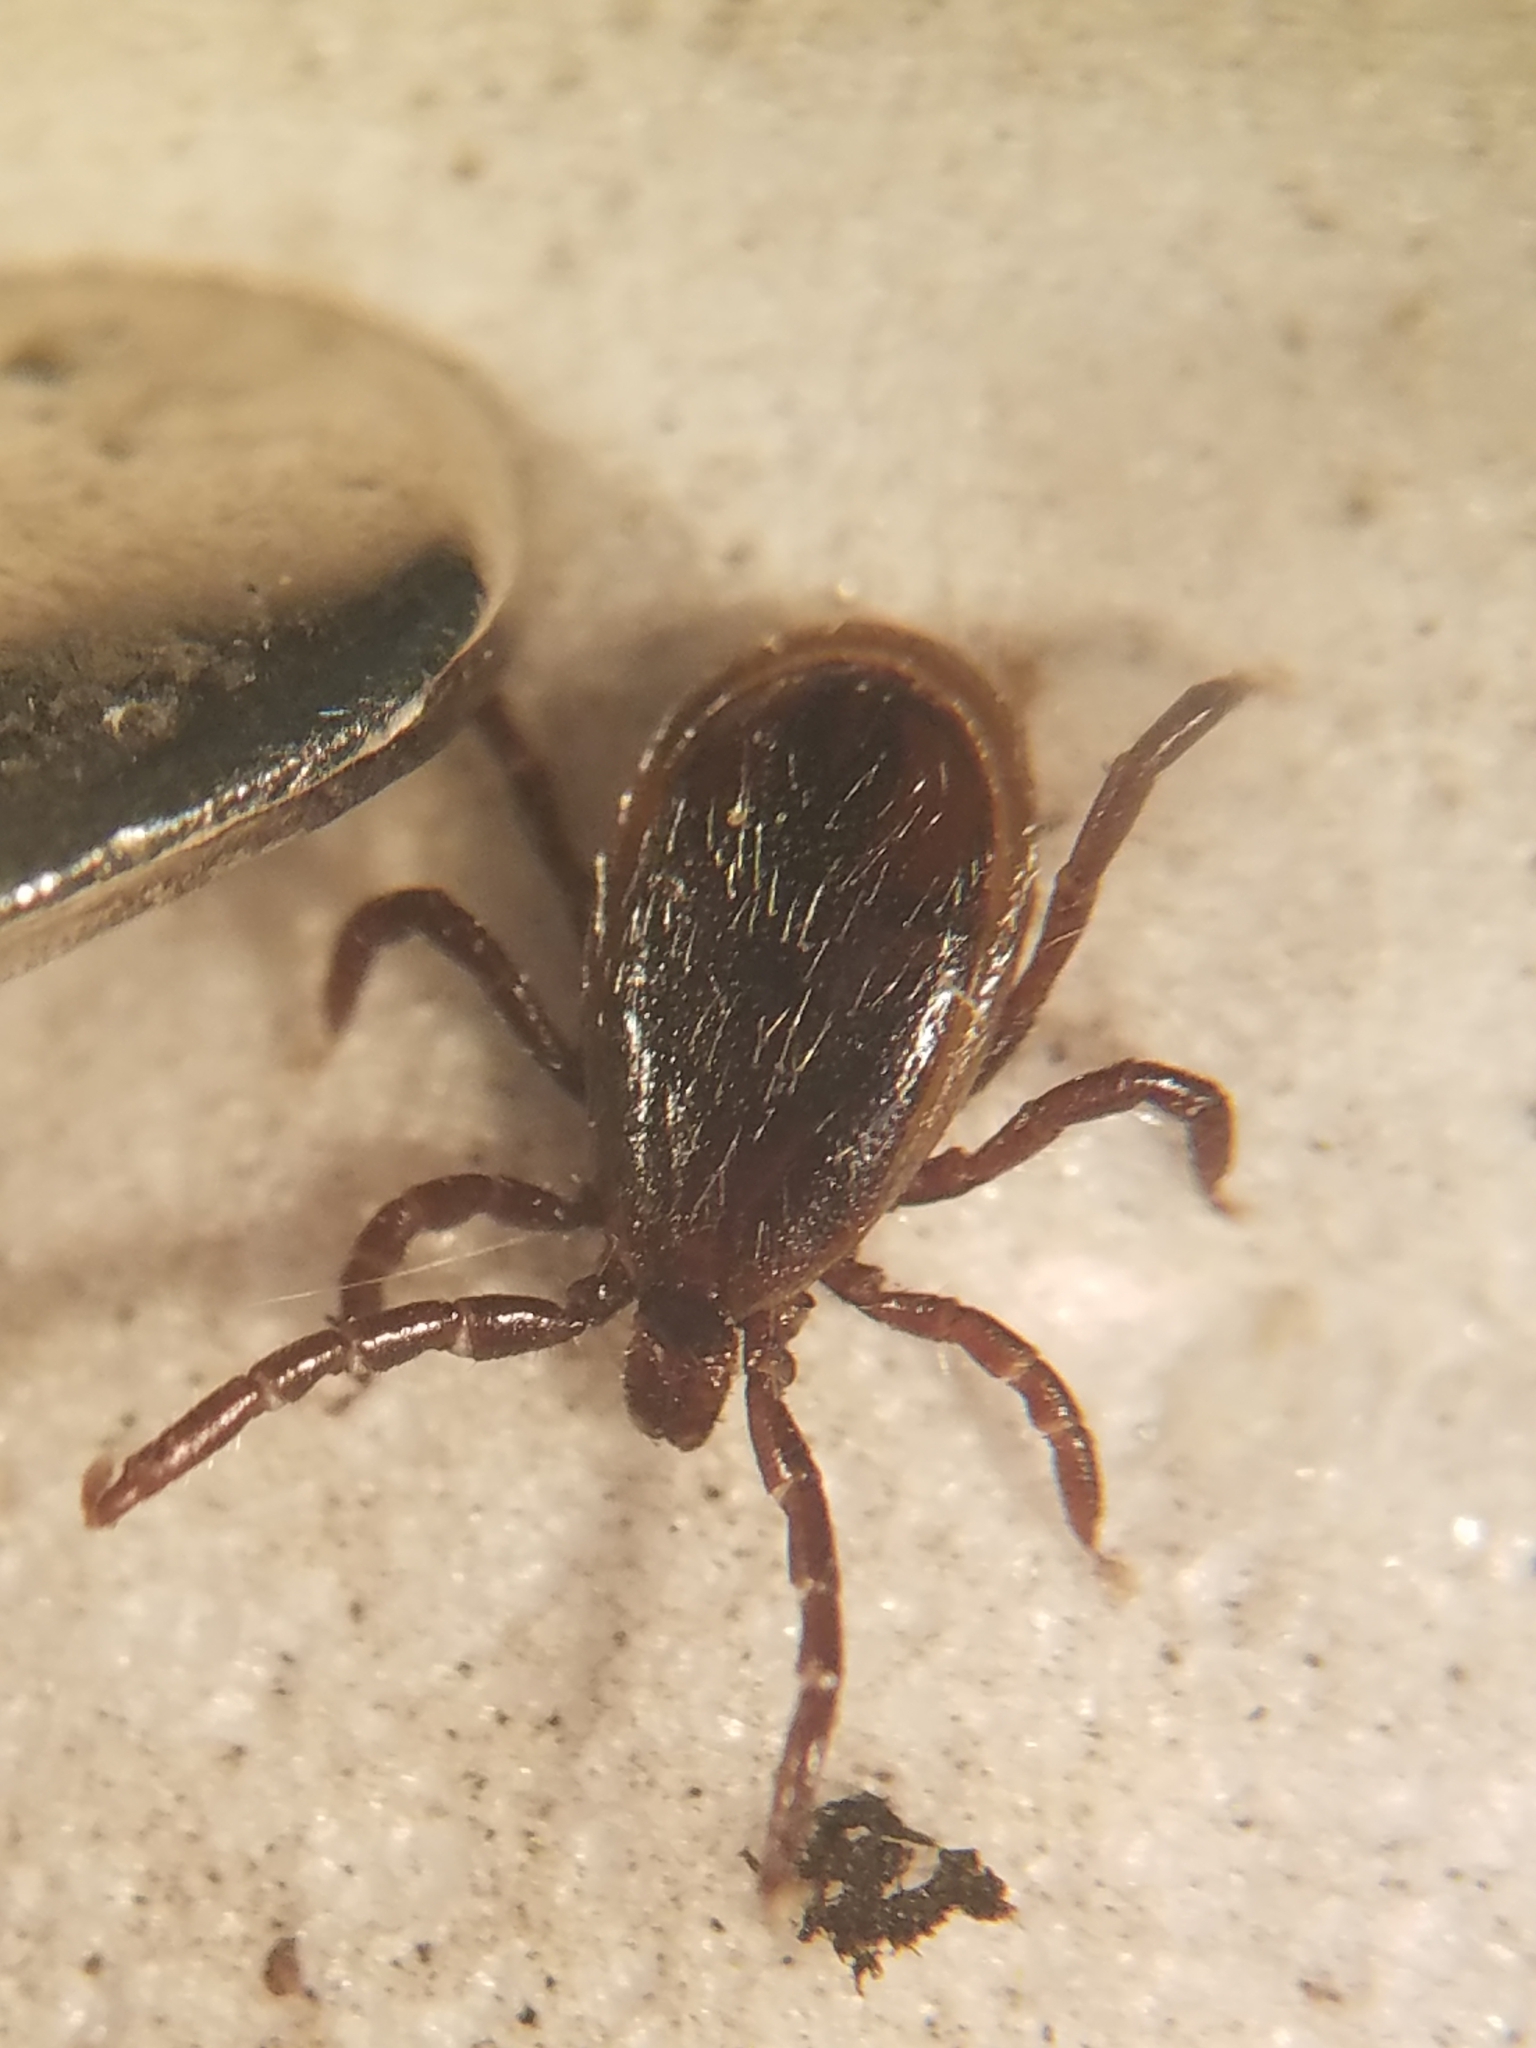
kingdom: Animalia
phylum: Arthropoda
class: Arachnida
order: Ixodida
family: Ixodidae
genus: Ixodes
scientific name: Ixodes scapularis
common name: Black legged tick
